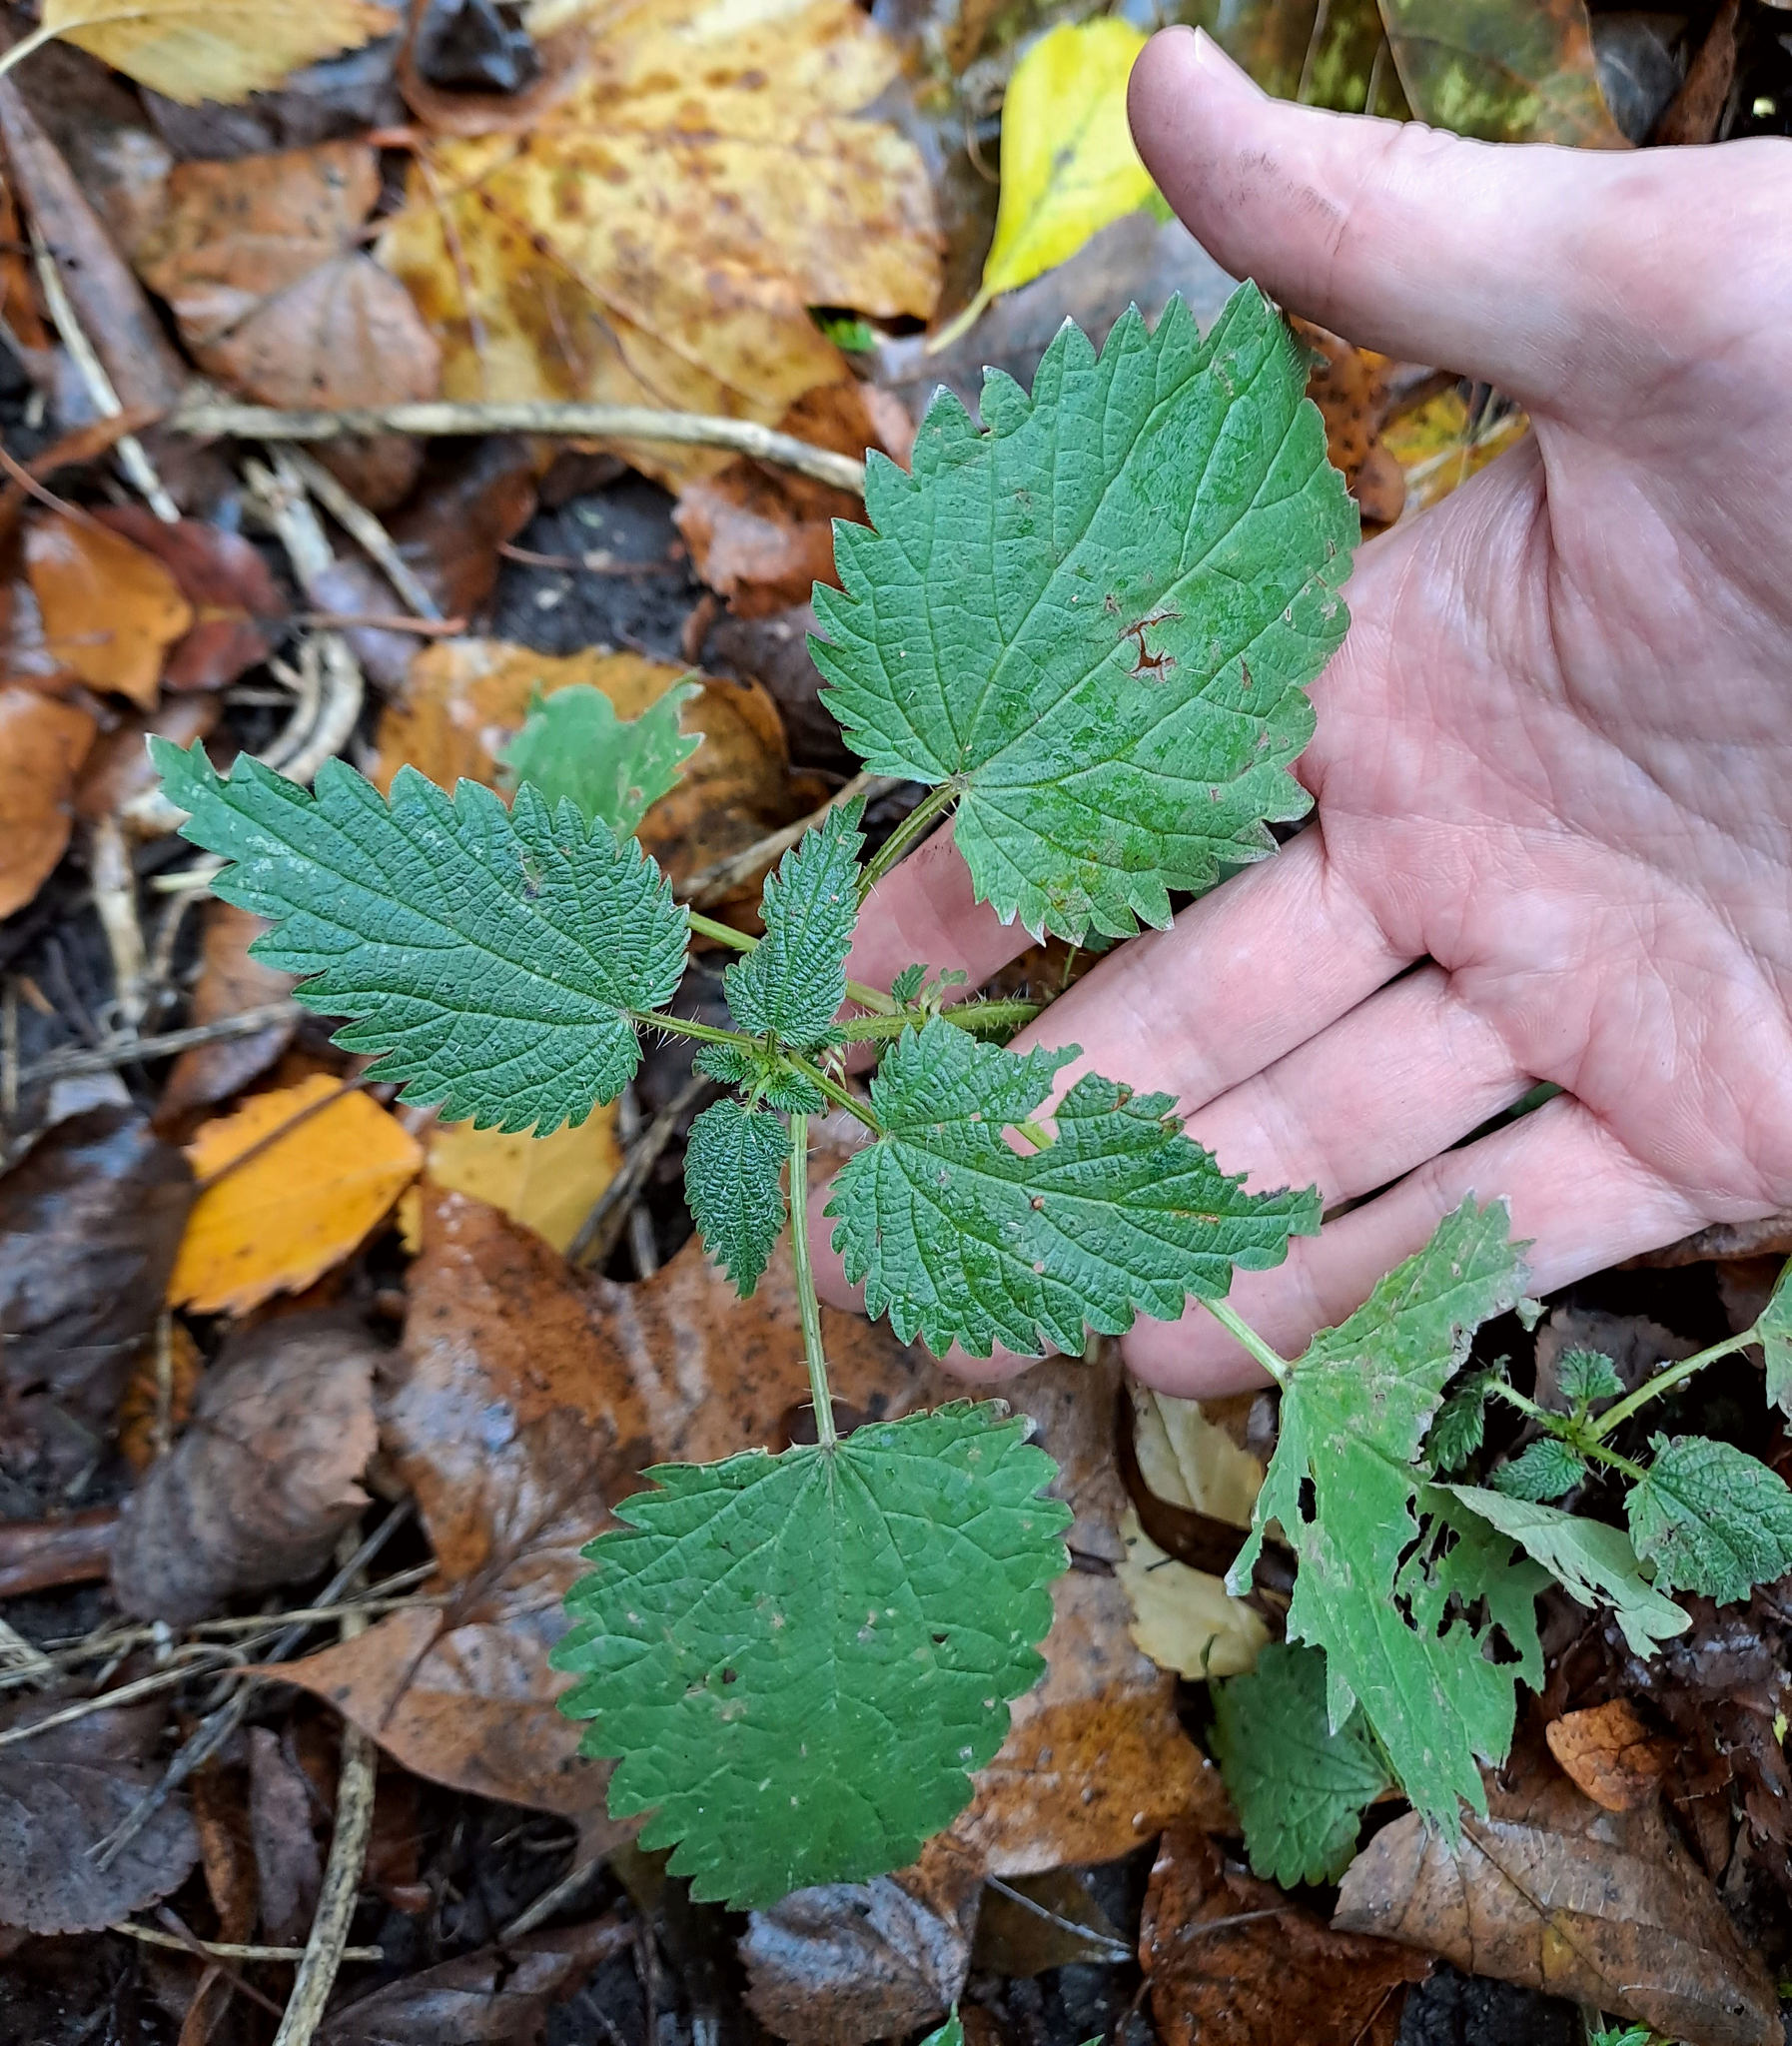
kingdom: Plantae
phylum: Tracheophyta
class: Magnoliopsida
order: Rosales
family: Urticaceae
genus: Urtica
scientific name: Urtica dioica
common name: Common nettle
